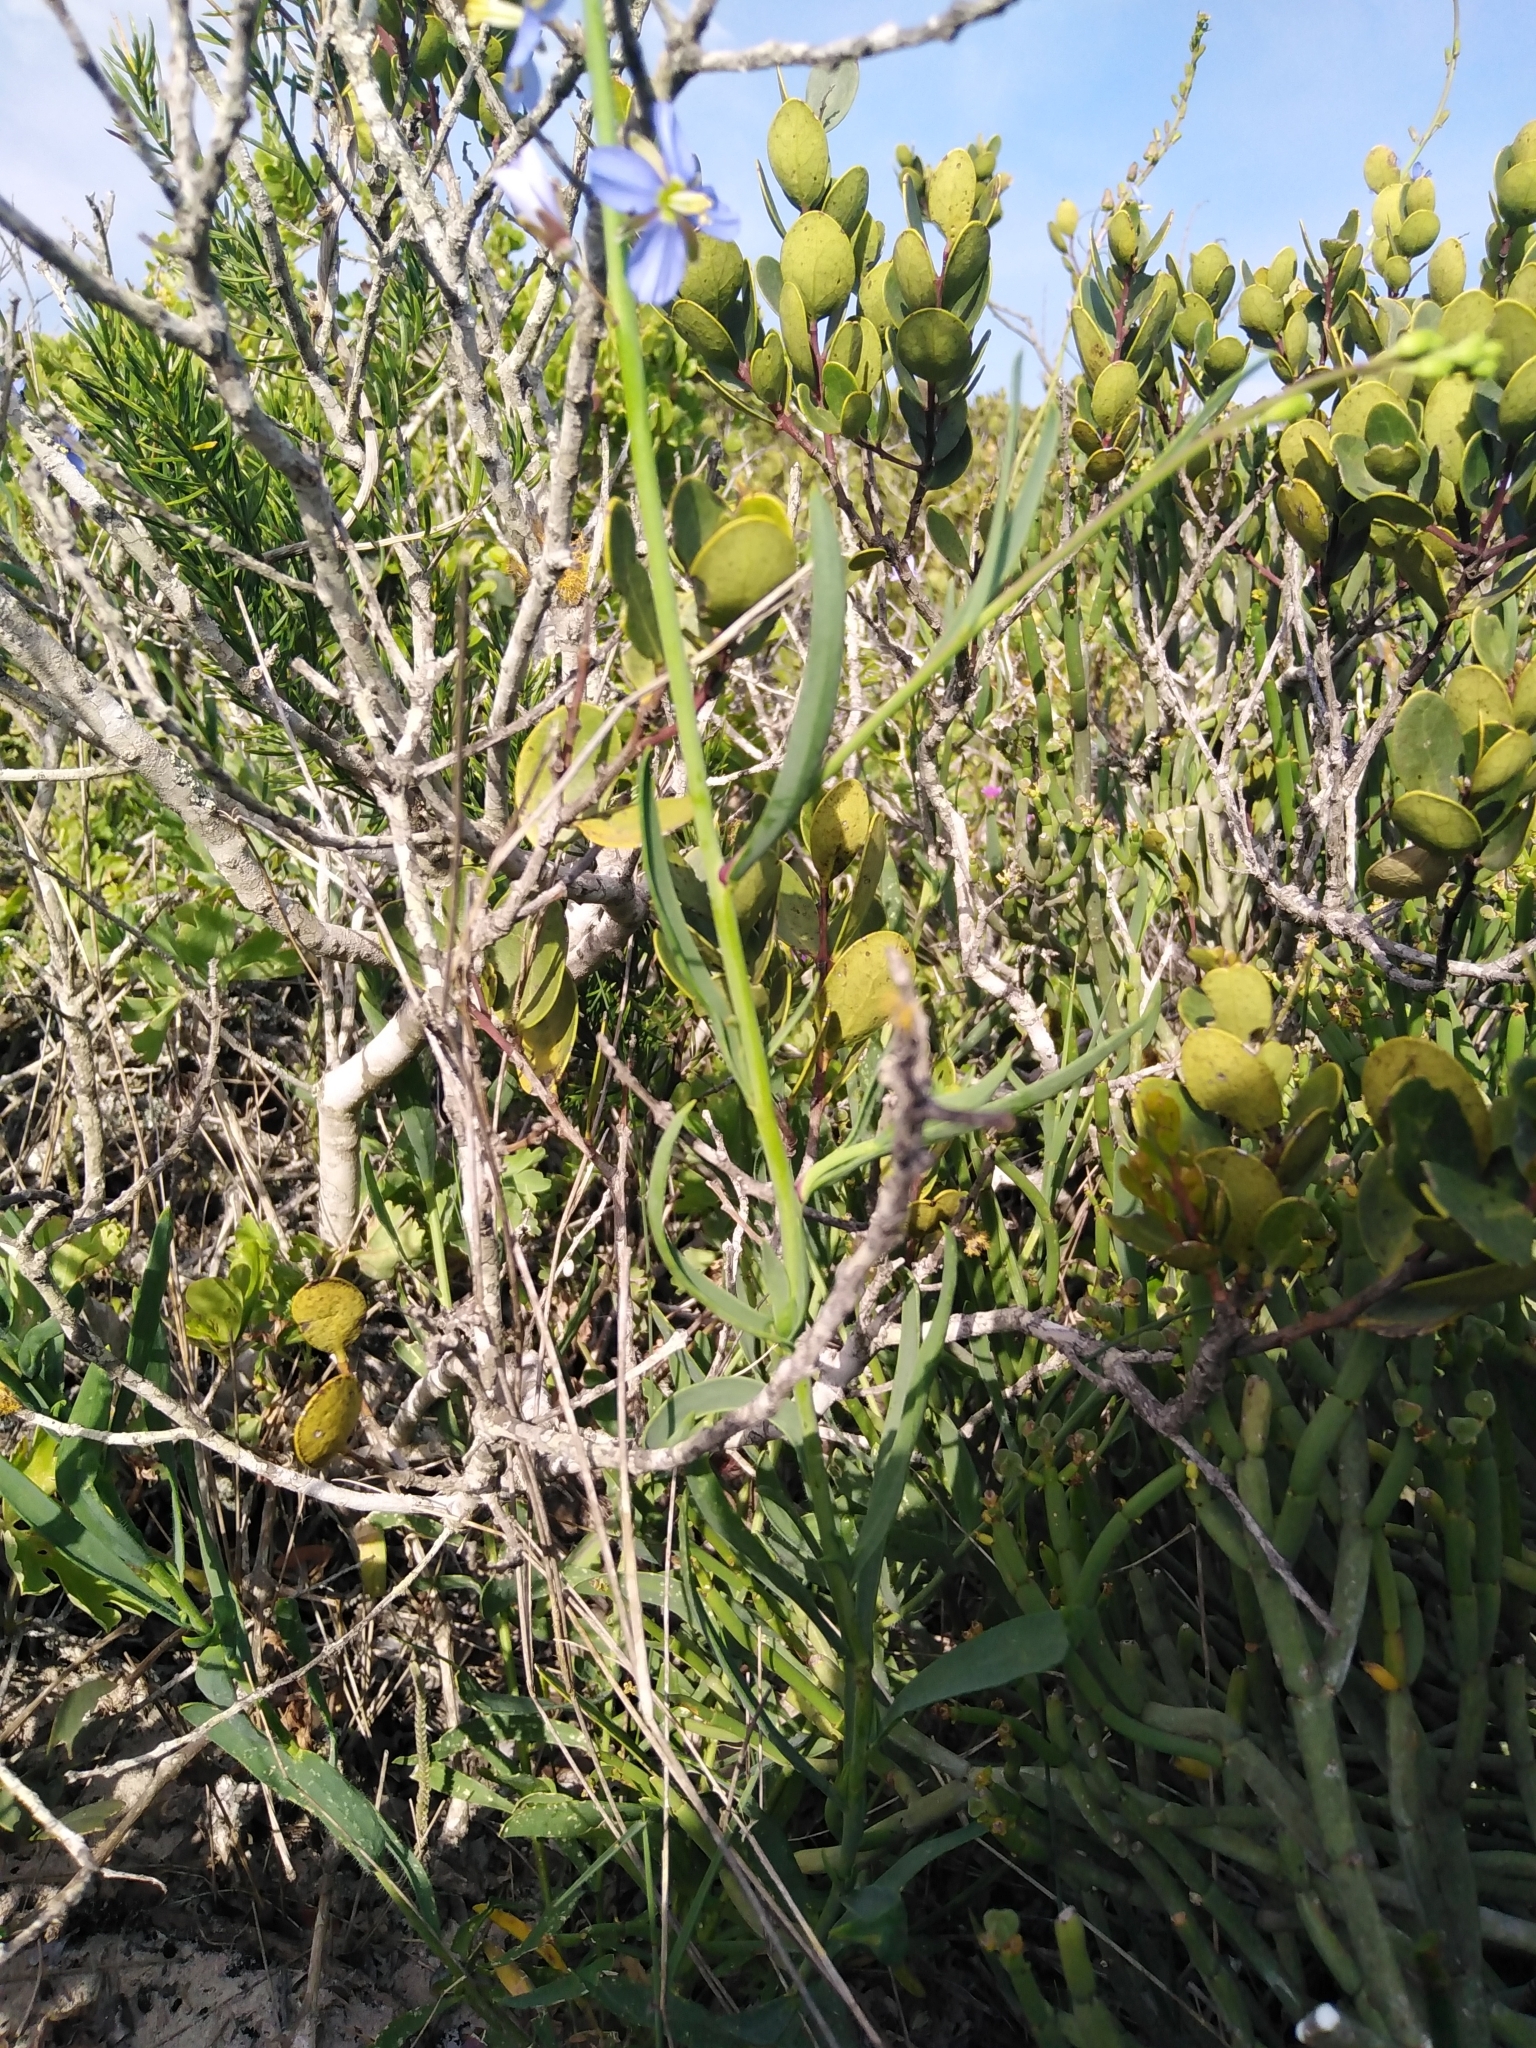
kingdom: Plantae
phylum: Tracheophyta
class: Magnoliopsida
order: Brassicales
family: Brassicaceae
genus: Heliophila
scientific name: Heliophila linearis
